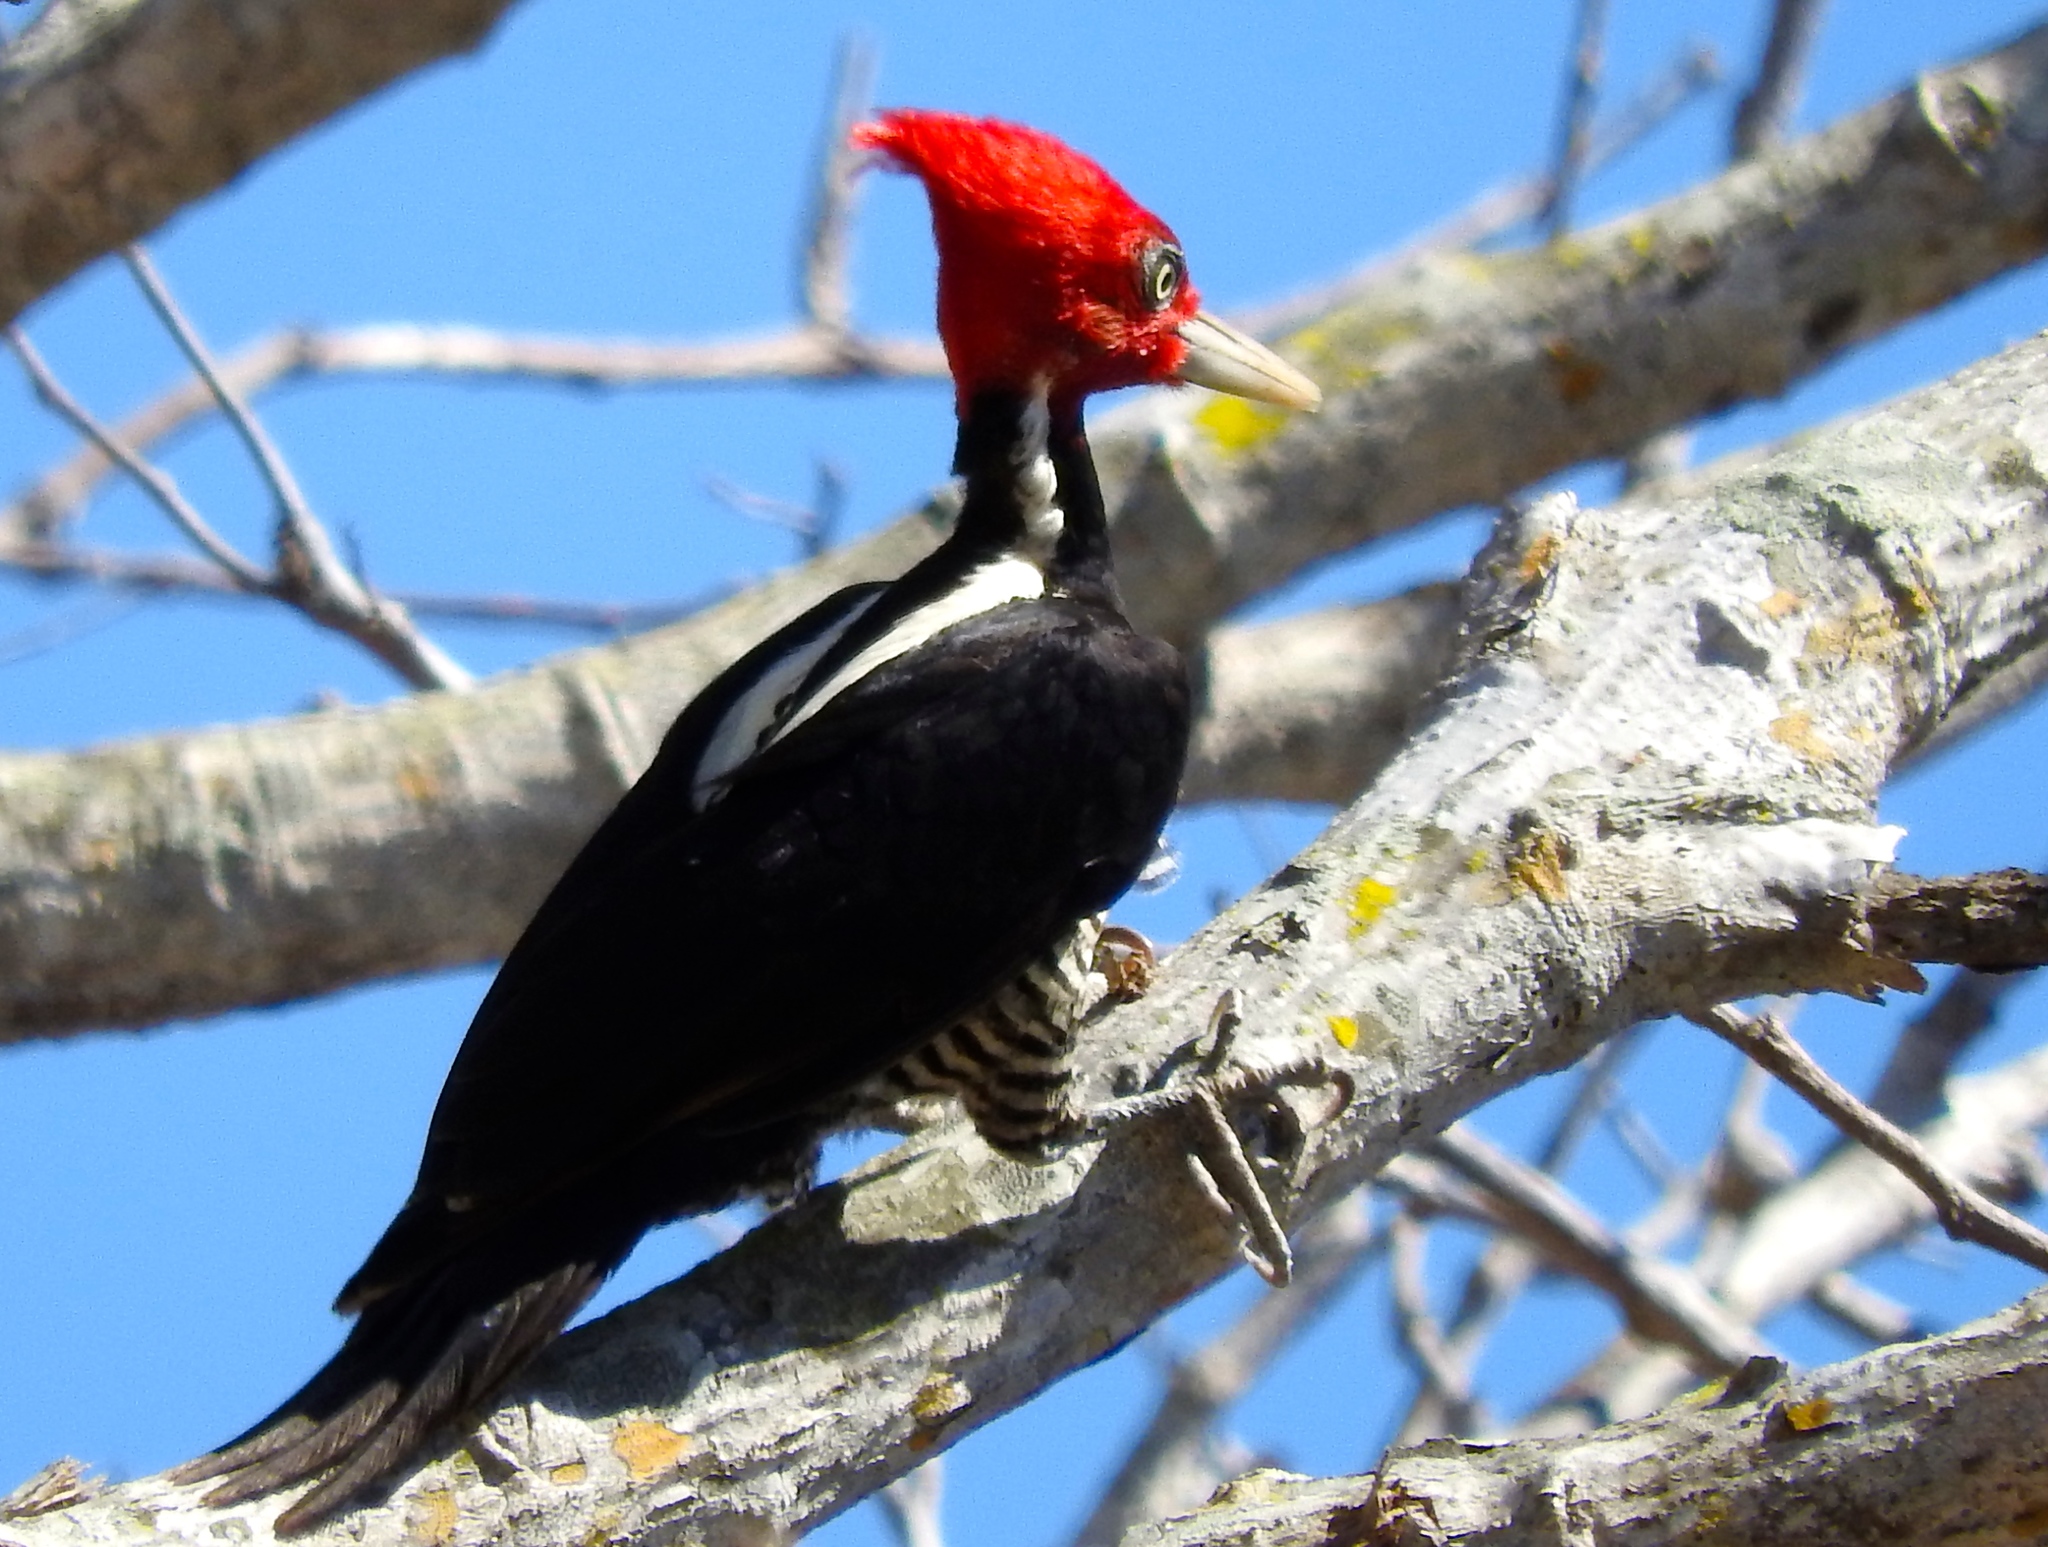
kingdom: Animalia
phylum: Chordata
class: Aves
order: Piciformes
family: Picidae
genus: Campephilus
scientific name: Campephilus guatemalensis
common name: Pale-billed woodpecker
